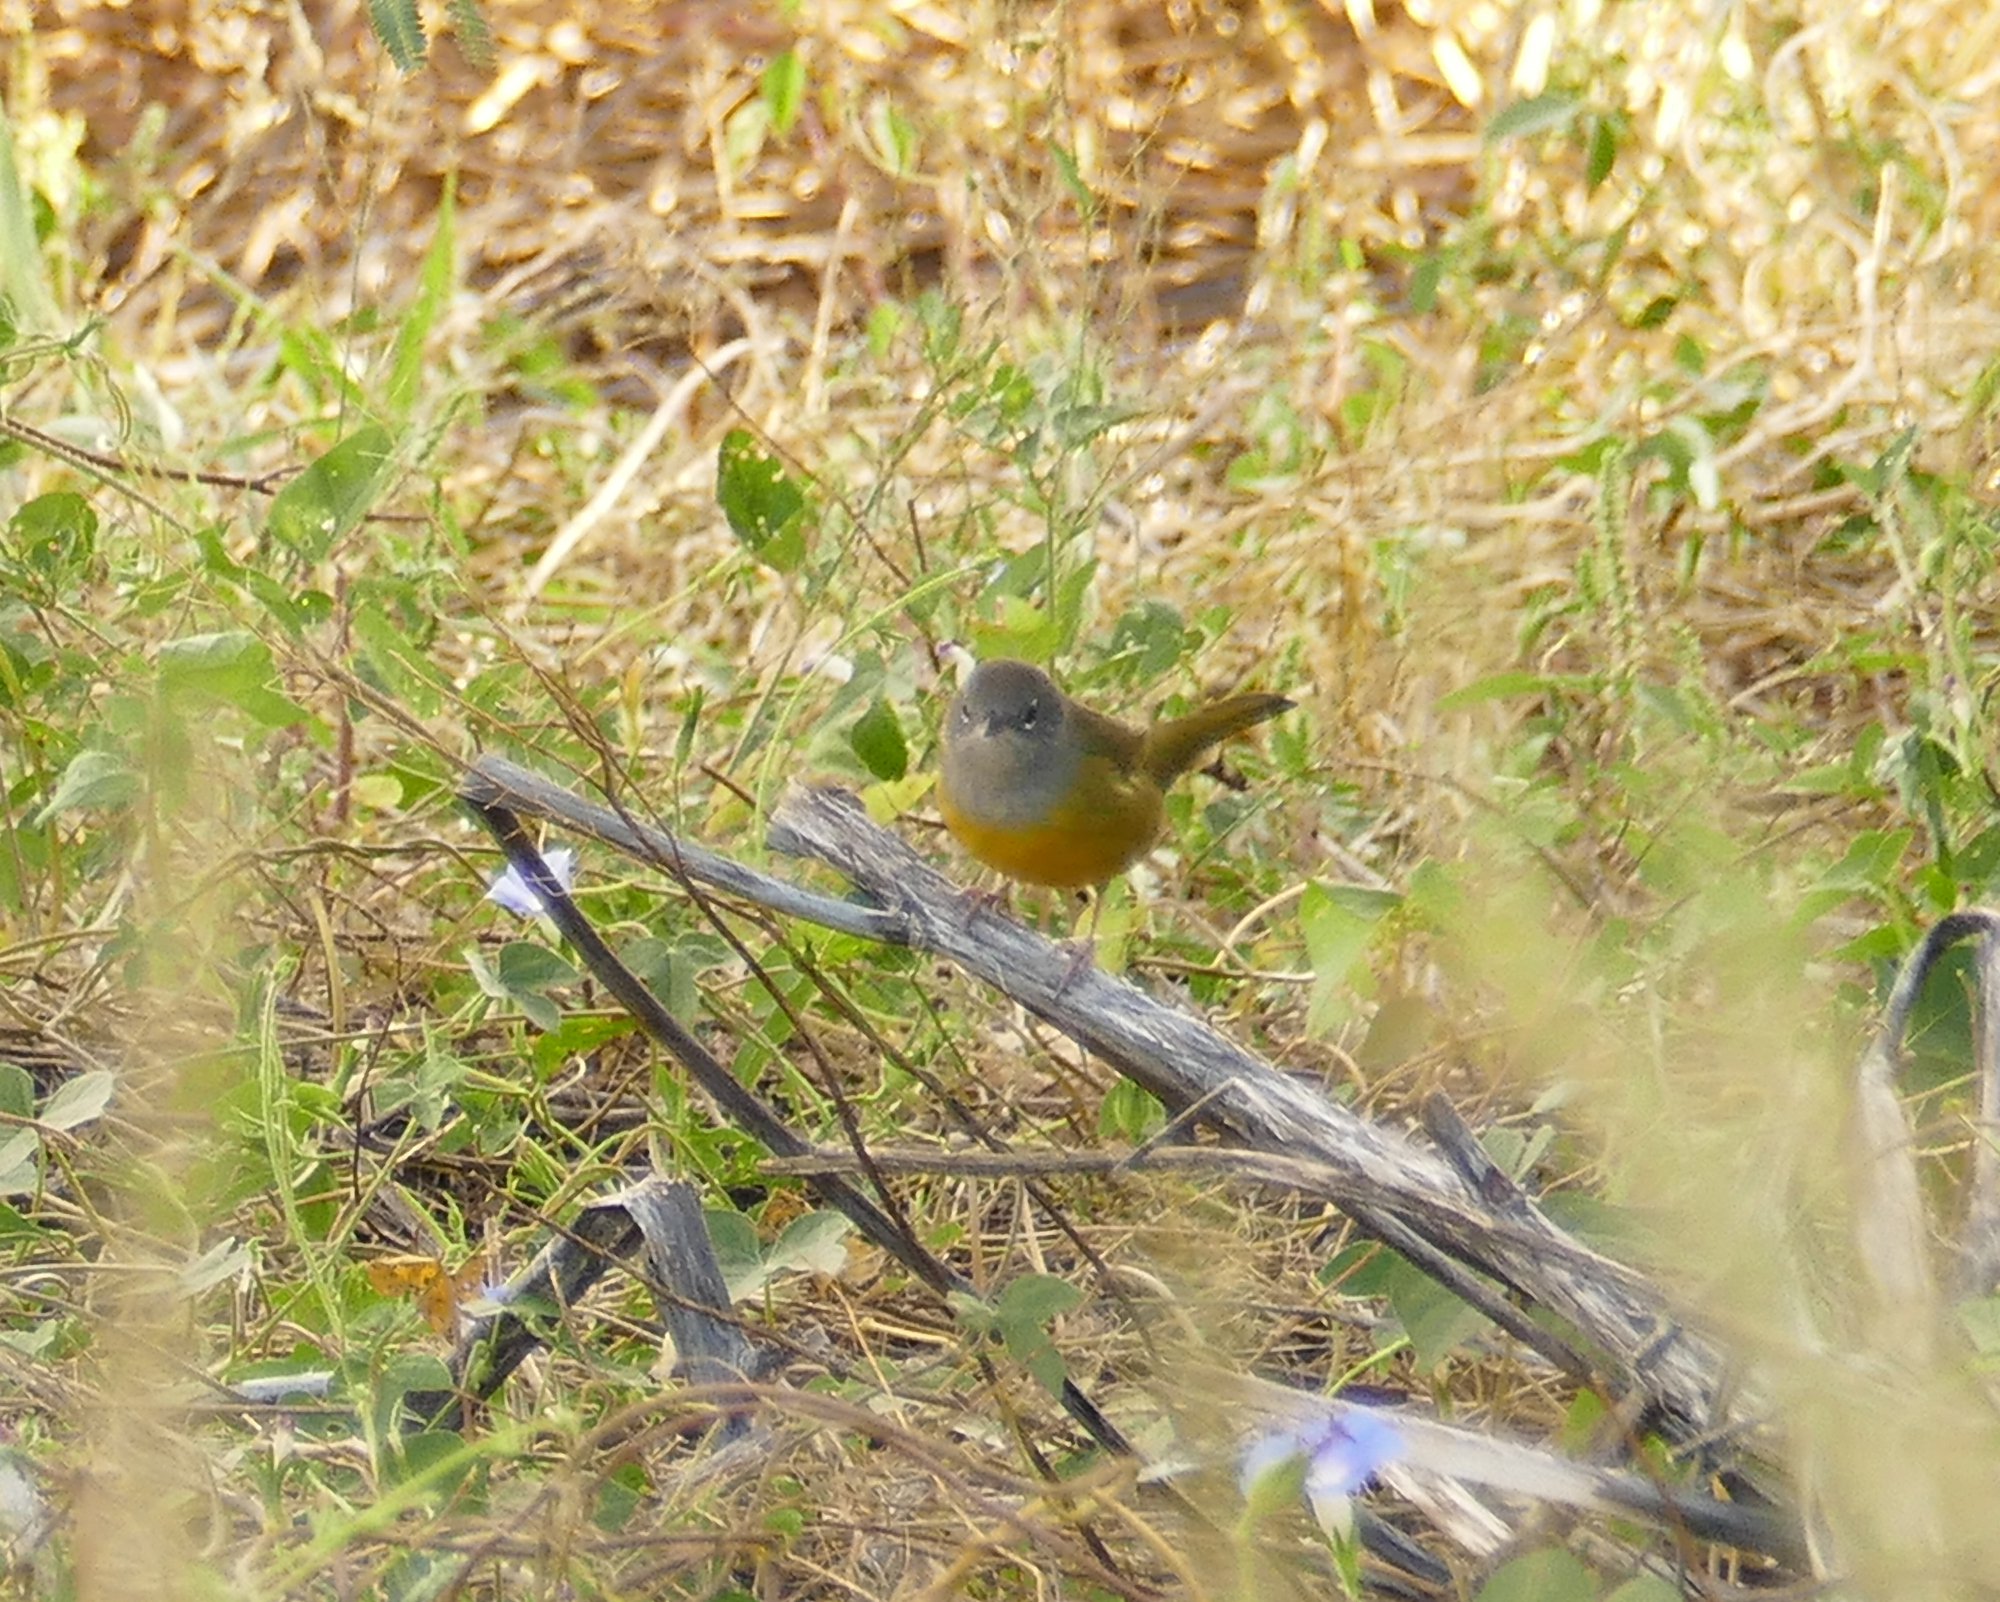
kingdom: Animalia
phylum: Chordata
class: Aves
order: Passeriformes
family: Parulidae
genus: Geothlypis
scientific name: Geothlypis tolmiei
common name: Macgillivray's warbler
